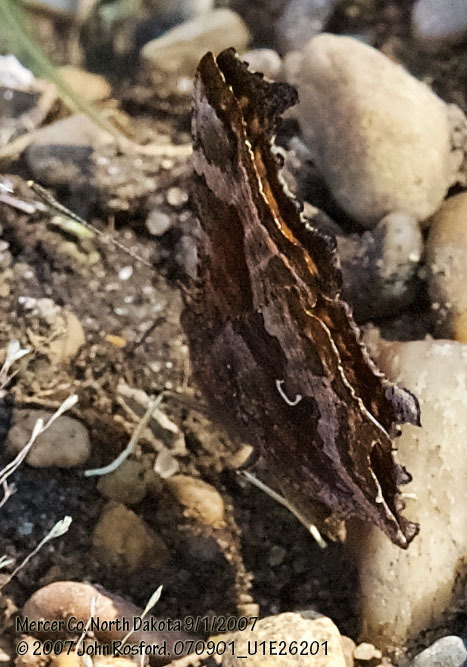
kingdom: Animalia
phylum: Arthropoda
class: Insecta
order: Lepidoptera
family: Nymphalidae
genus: Polygonia
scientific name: Polygonia comma
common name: Eastern comma
